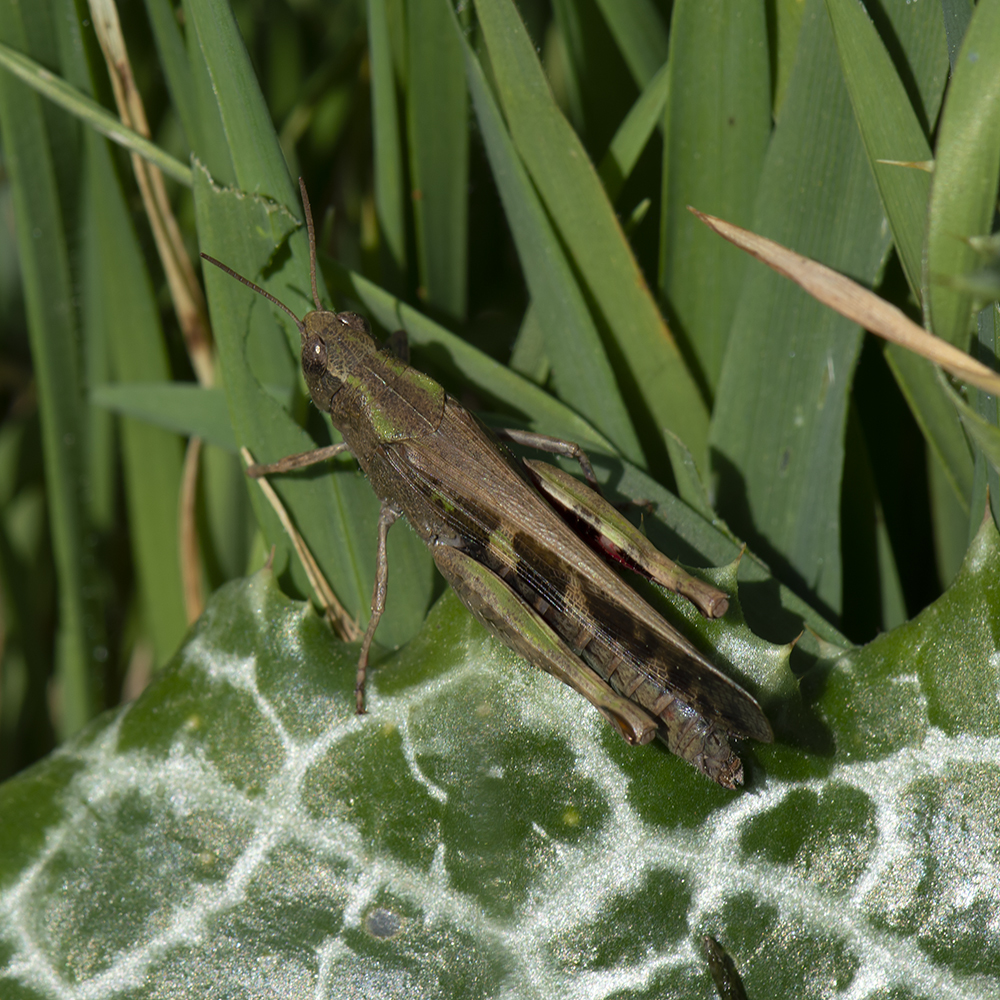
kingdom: Animalia
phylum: Arthropoda
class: Insecta
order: Orthoptera
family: Acrididae
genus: Aiolopus
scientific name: Aiolopus strepens
